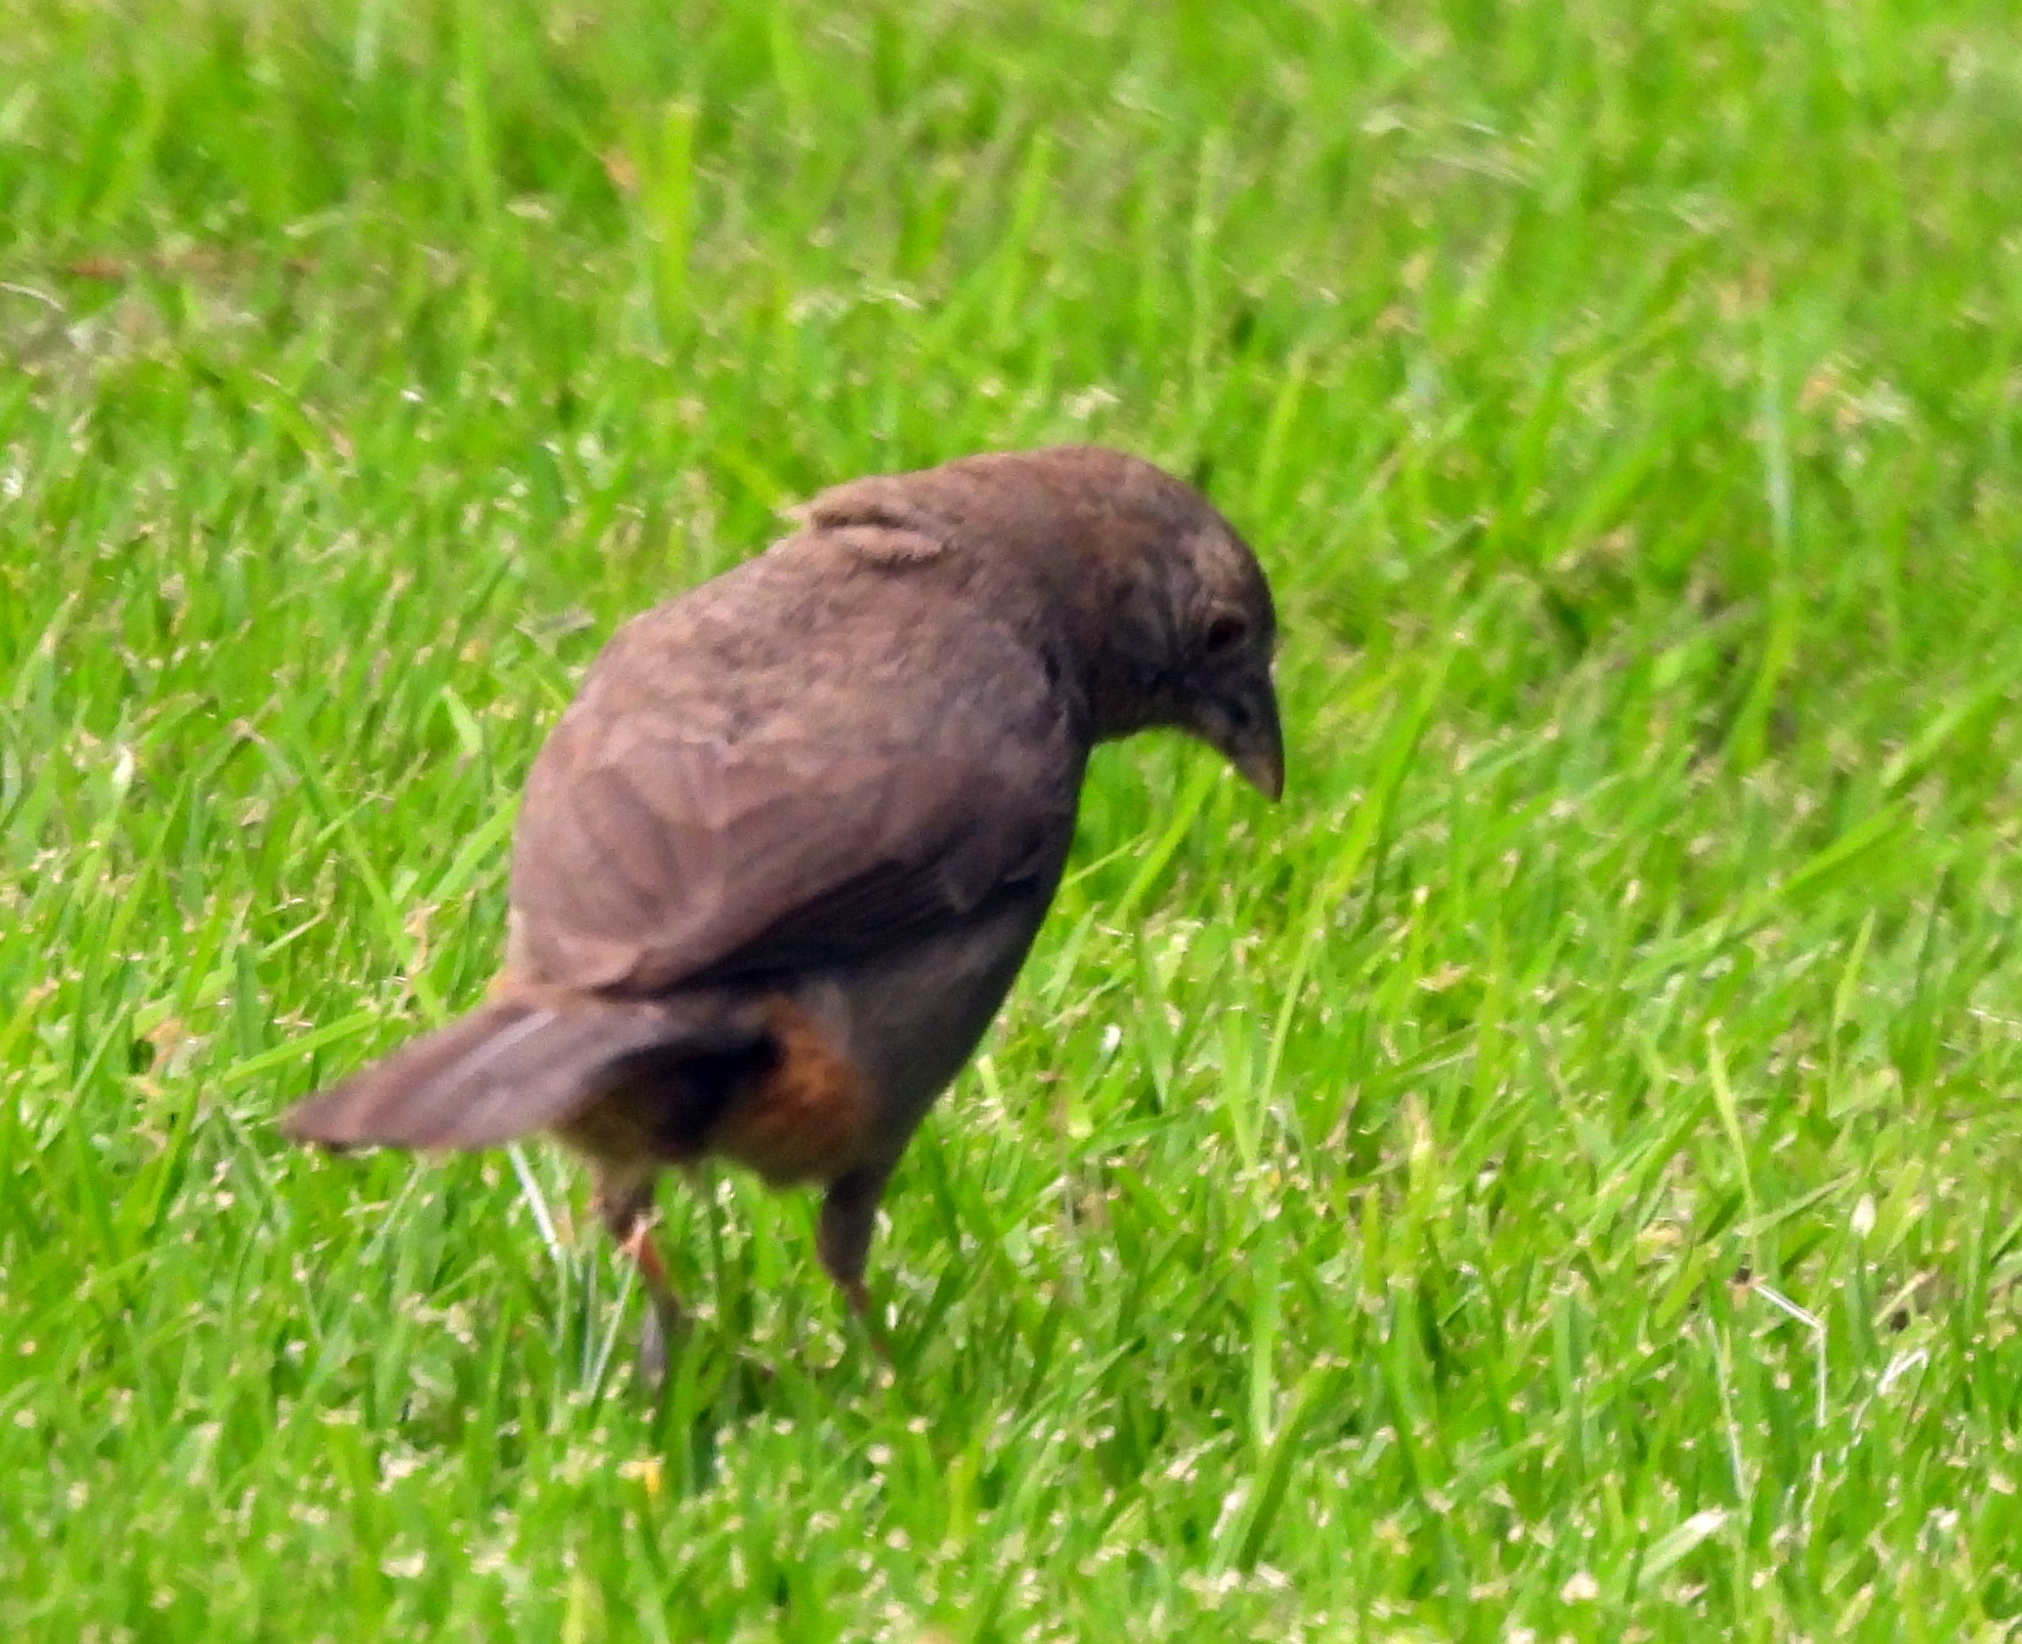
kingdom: Animalia
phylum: Chordata
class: Aves
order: Passeriformes
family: Passerellidae
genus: Melozone
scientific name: Melozone fusca
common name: Canyon towhee
